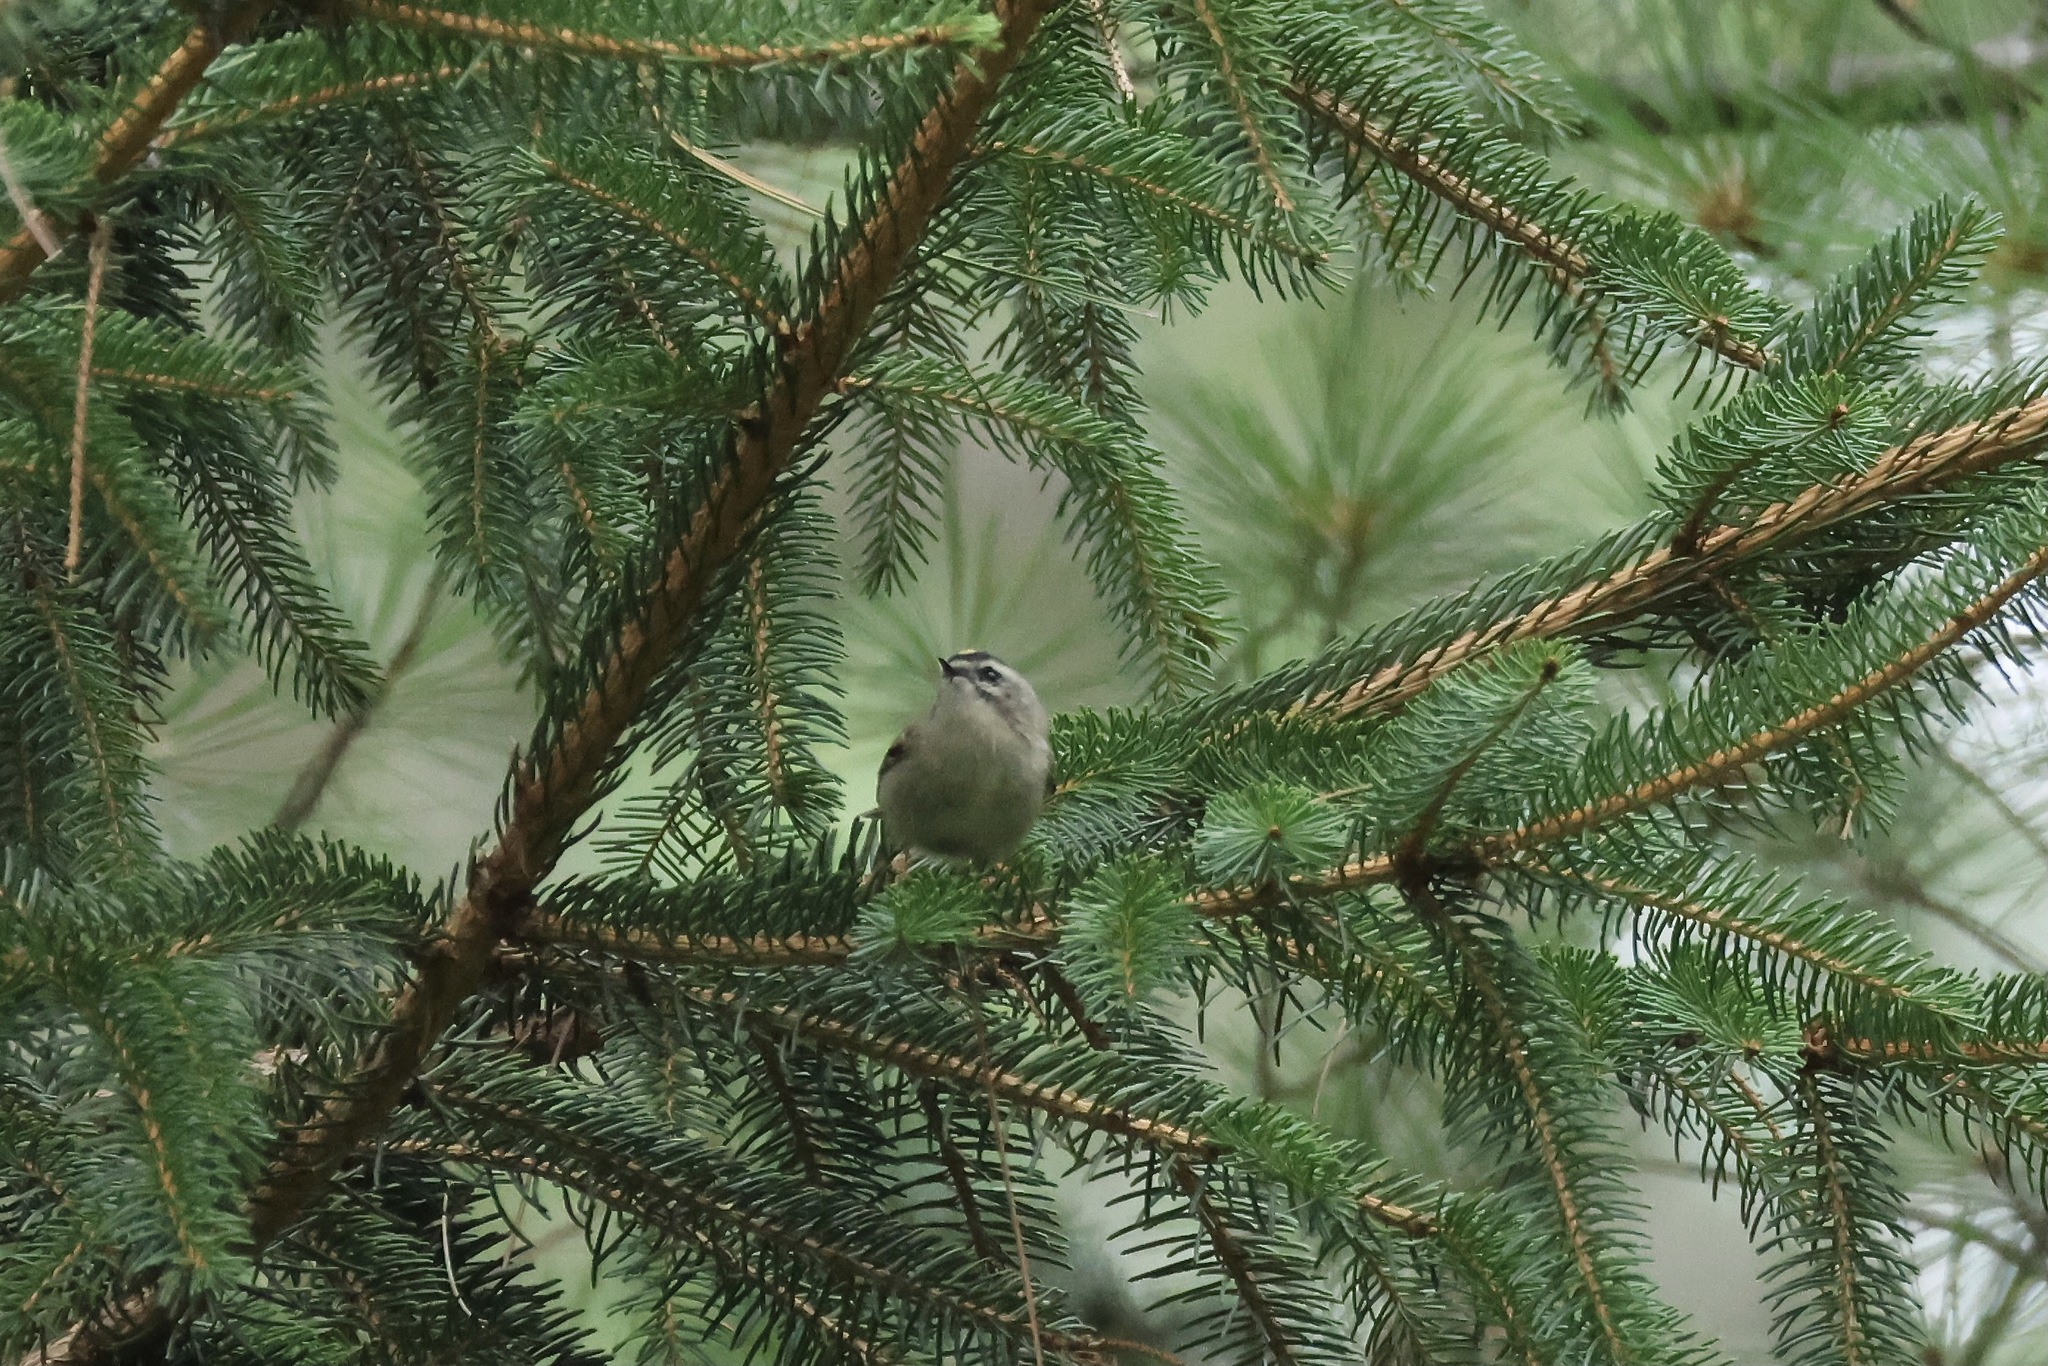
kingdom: Animalia
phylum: Chordata
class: Aves
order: Passeriformes
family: Regulidae
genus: Regulus
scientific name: Regulus satrapa
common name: Golden-crowned kinglet
